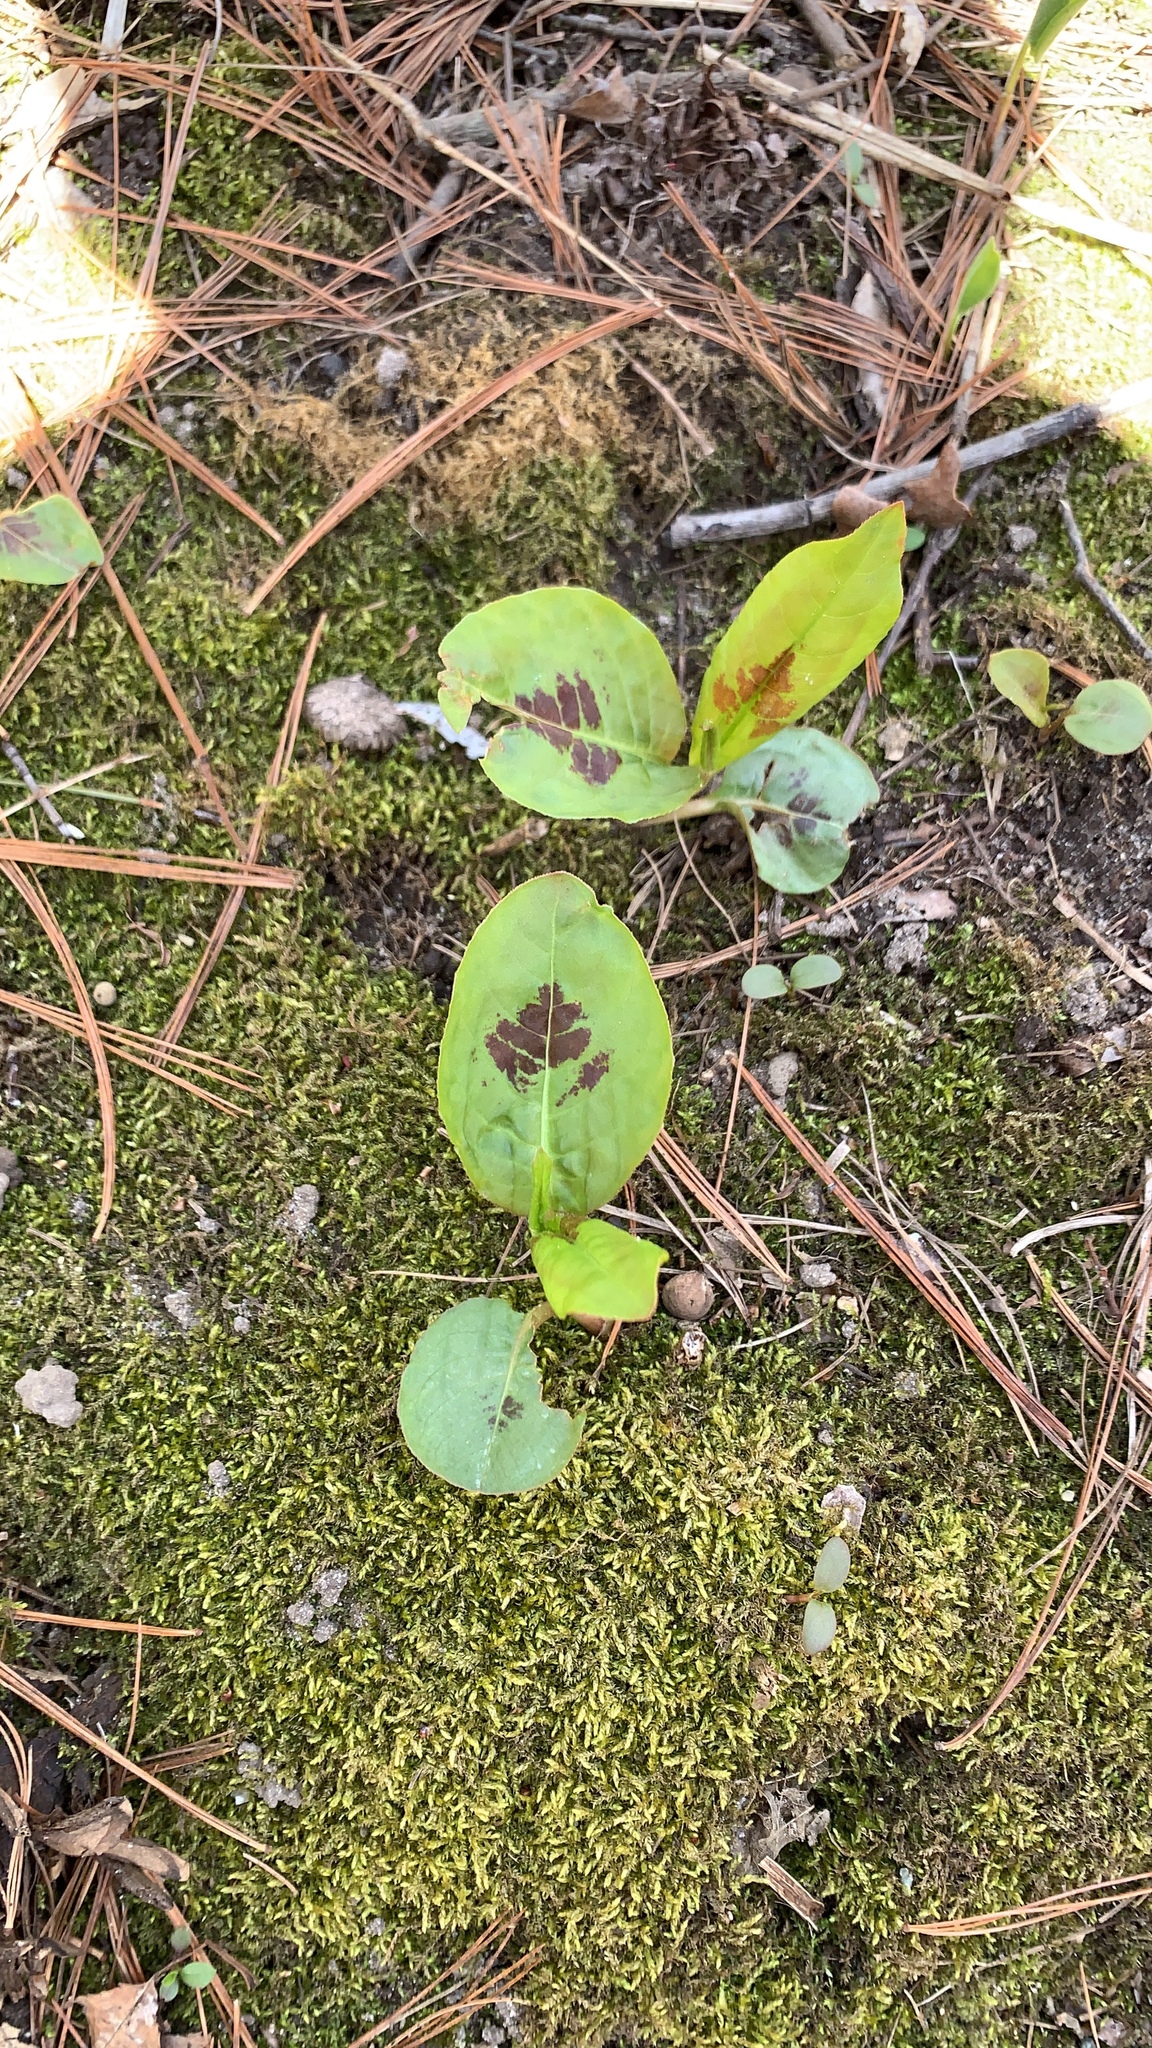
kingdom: Plantae
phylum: Tracheophyta
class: Magnoliopsida
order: Caryophyllales
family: Polygonaceae
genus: Persicaria
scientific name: Persicaria virginiana
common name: Jumpseed
